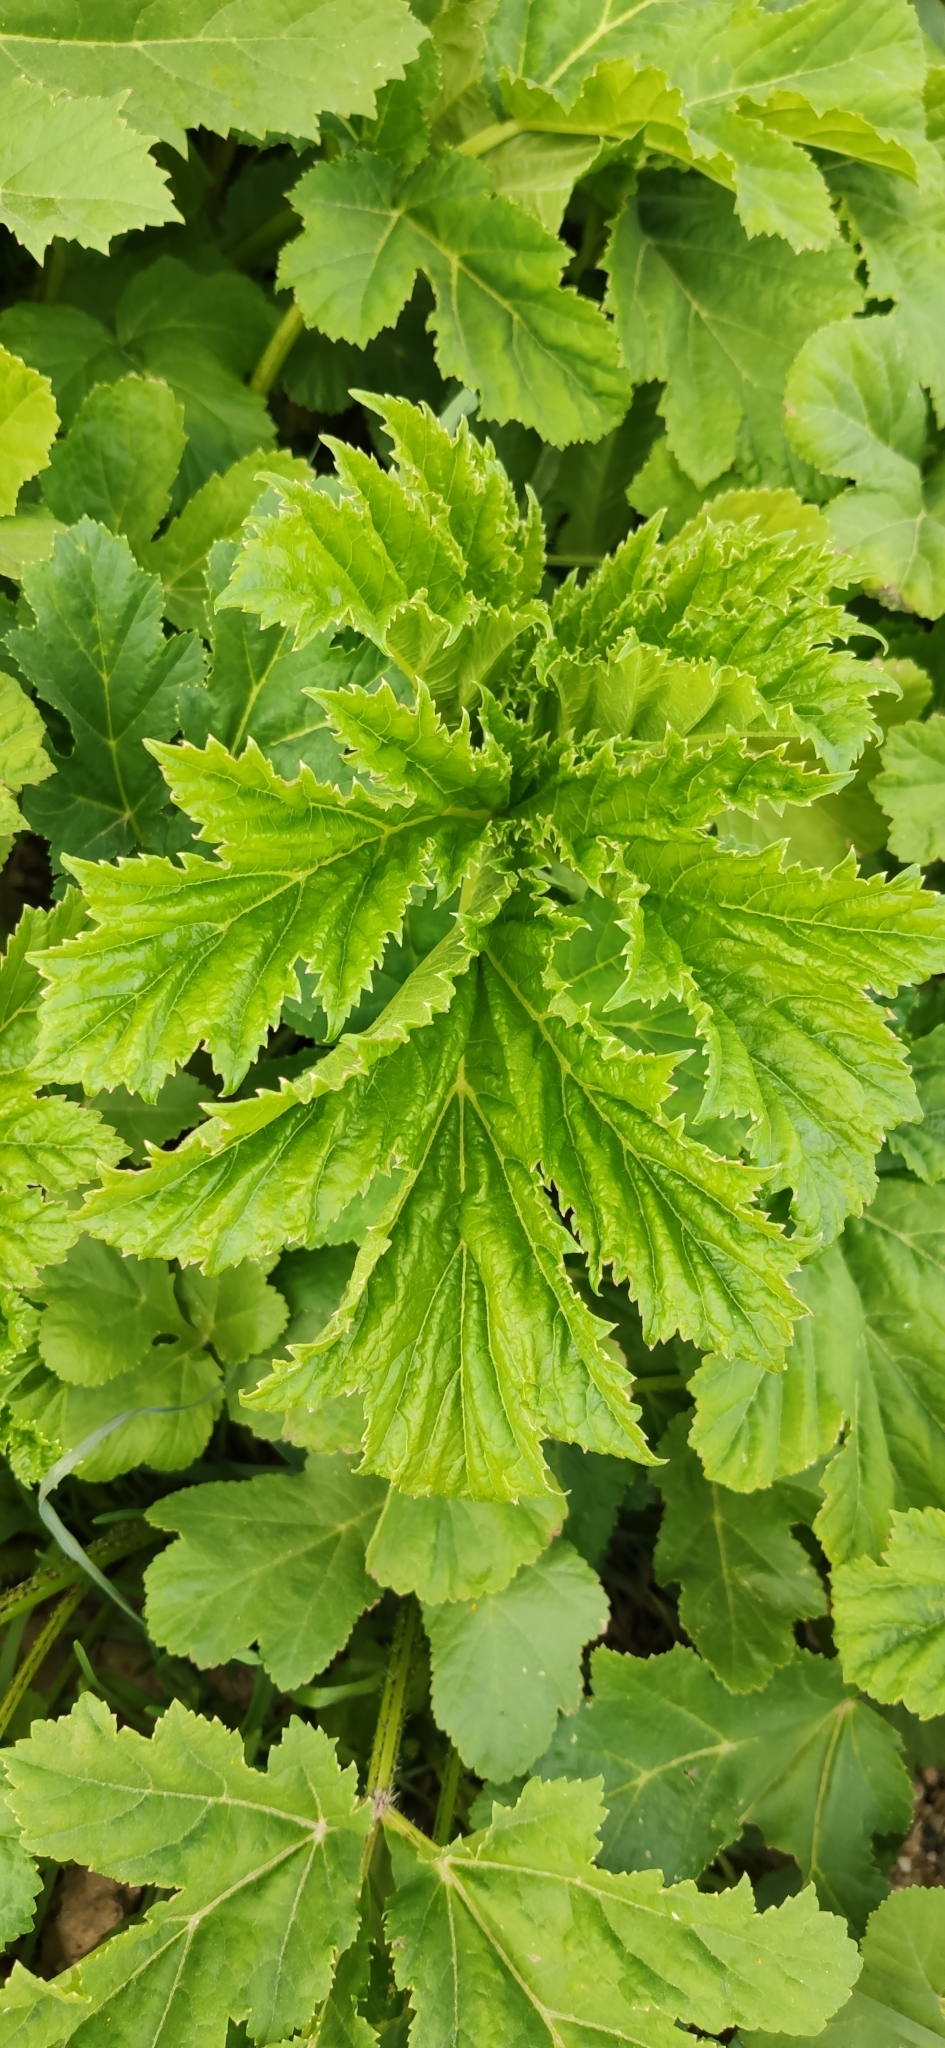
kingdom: Plantae
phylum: Tracheophyta
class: Magnoliopsida
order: Apiales
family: Apiaceae
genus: Heracleum
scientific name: Heracleum sosnowskyi
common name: Sosnowsky's hogweed
